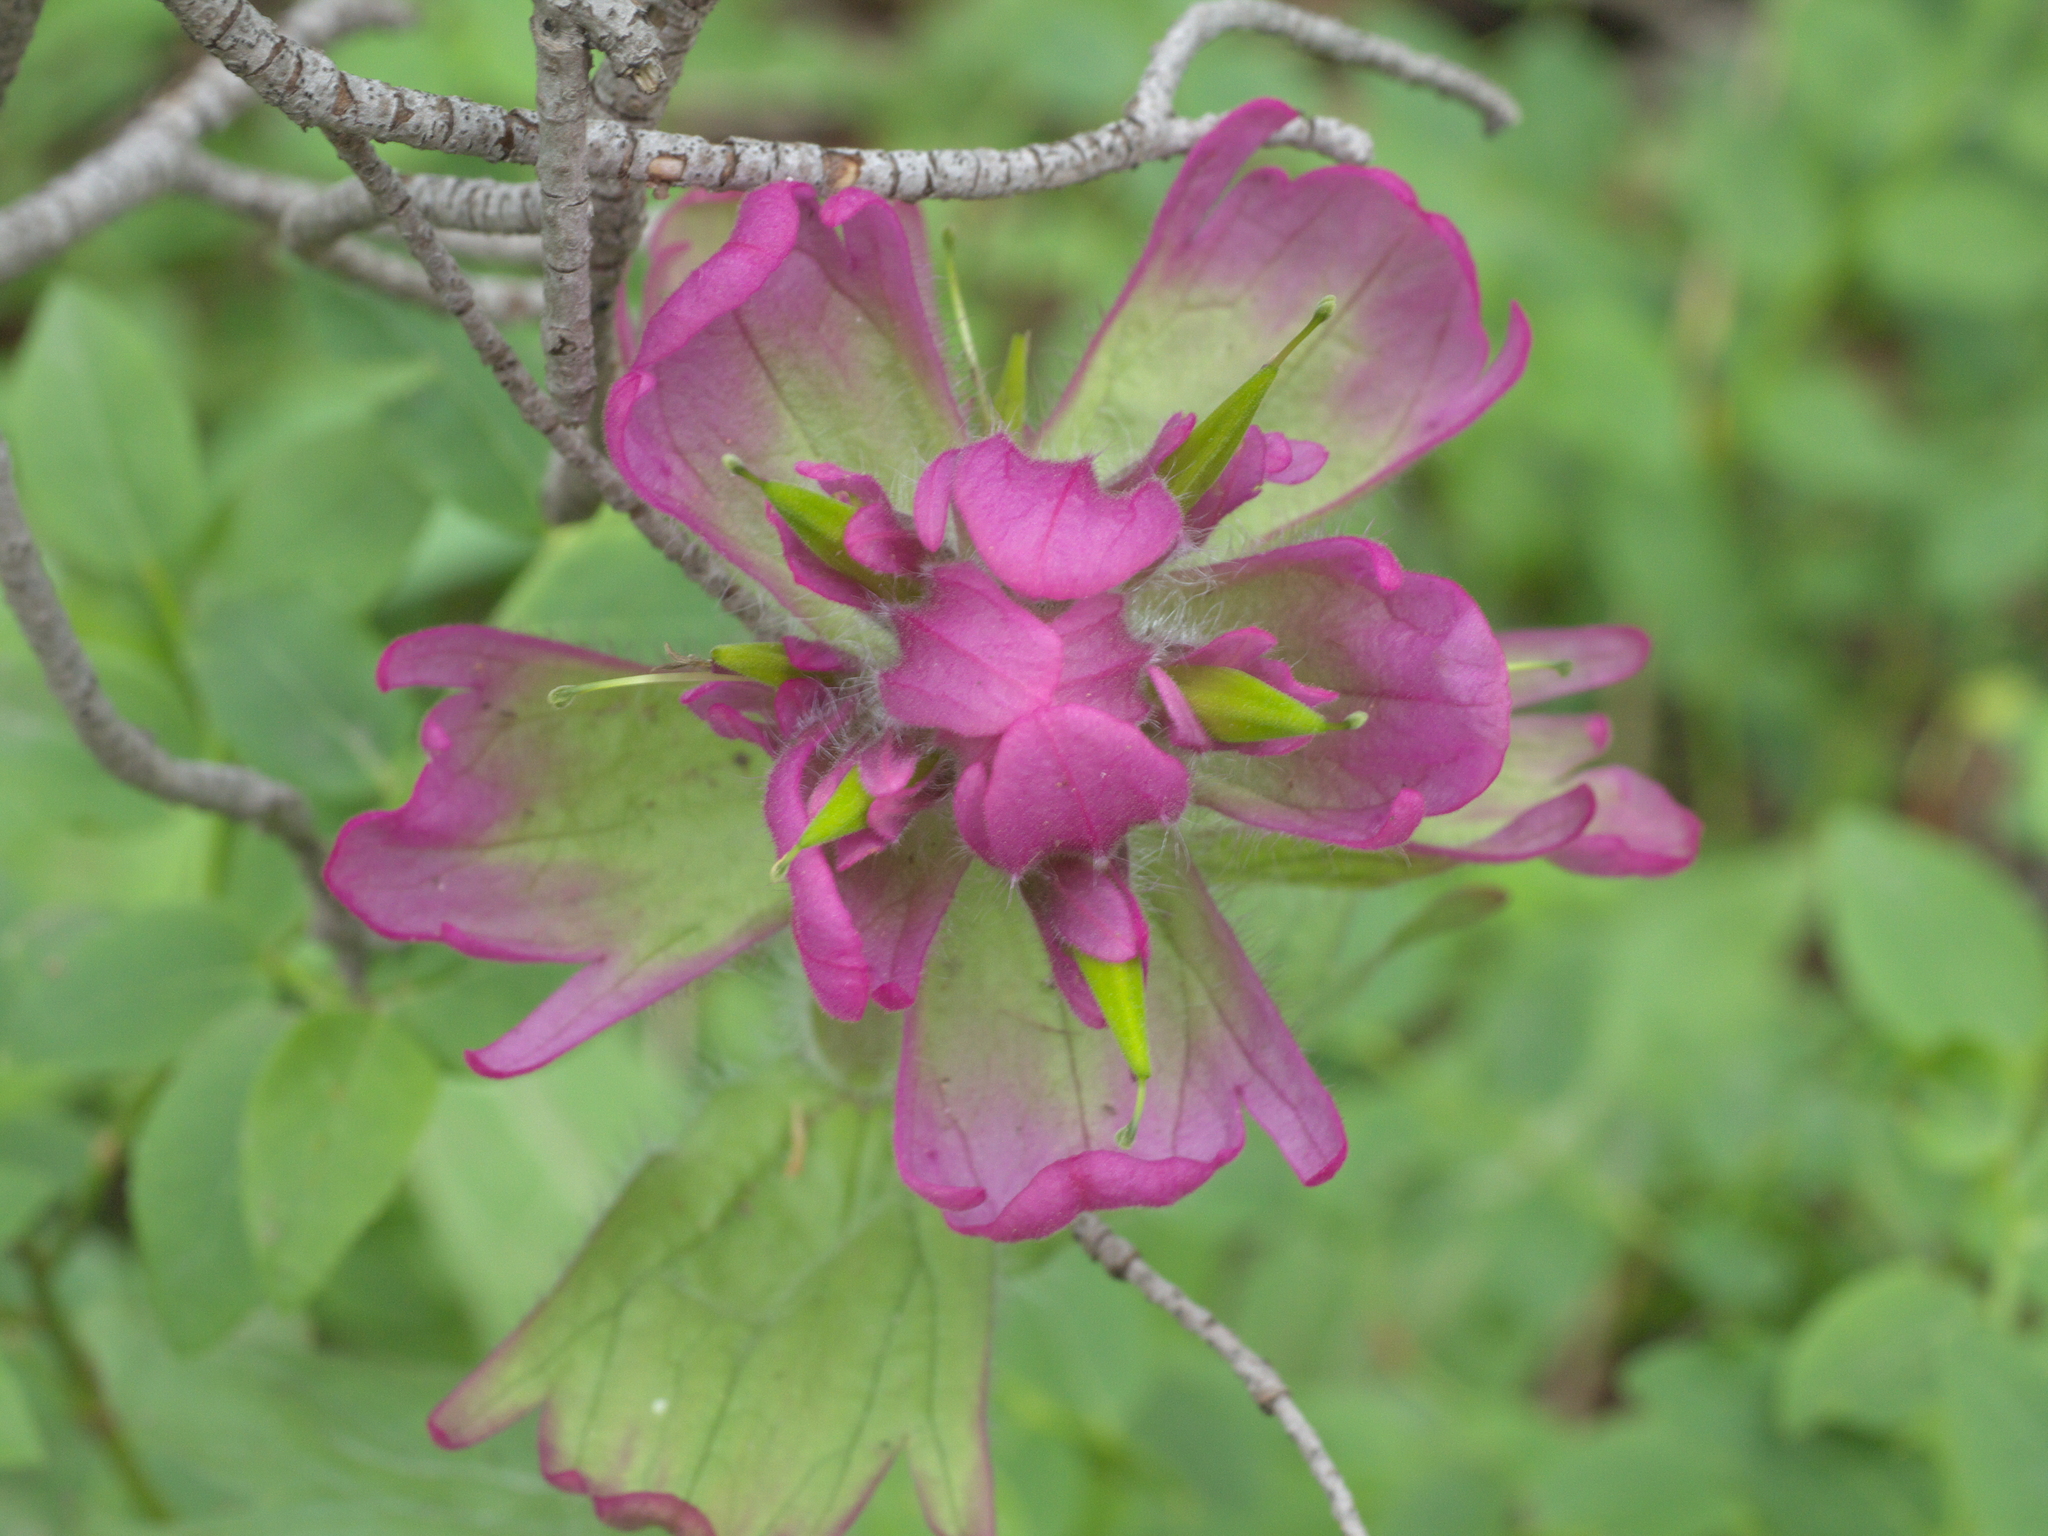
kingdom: Plantae
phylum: Tracheophyta
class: Magnoliopsida
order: Lamiales
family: Orobanchaceae
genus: Castilleja
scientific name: Castilleja rhexifolia
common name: Rocky mountain paintbrush
